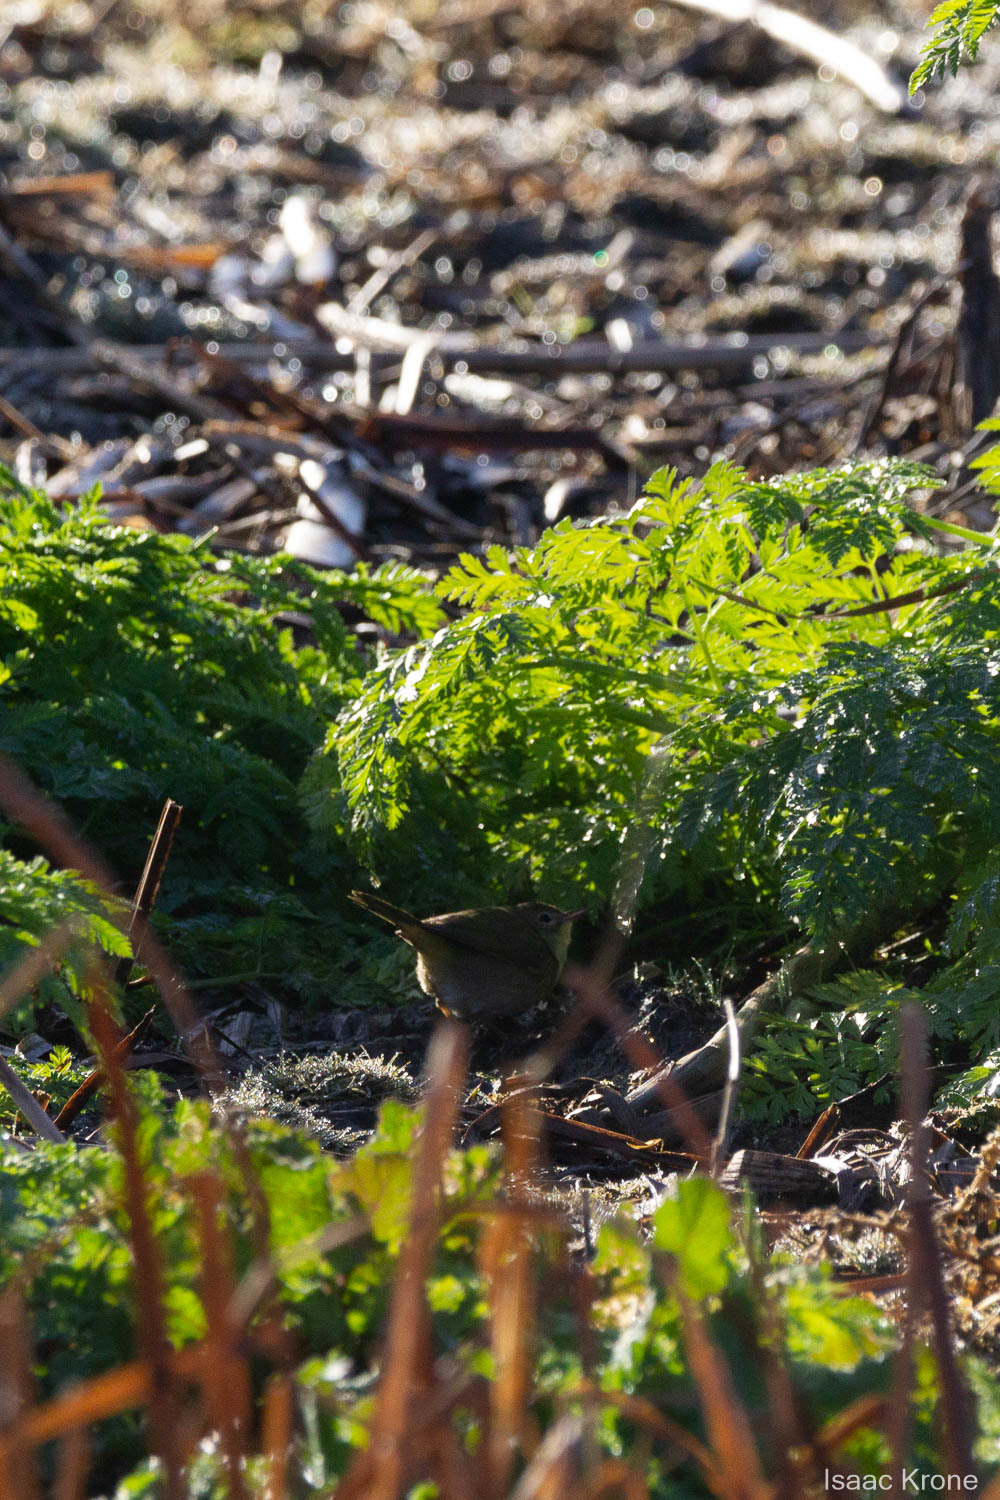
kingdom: Animalia
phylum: Chordata
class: Aves
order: Passeriformes
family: Parulidae
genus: Geothlypis
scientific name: Geothlypis trichas
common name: Common yellowthroat
